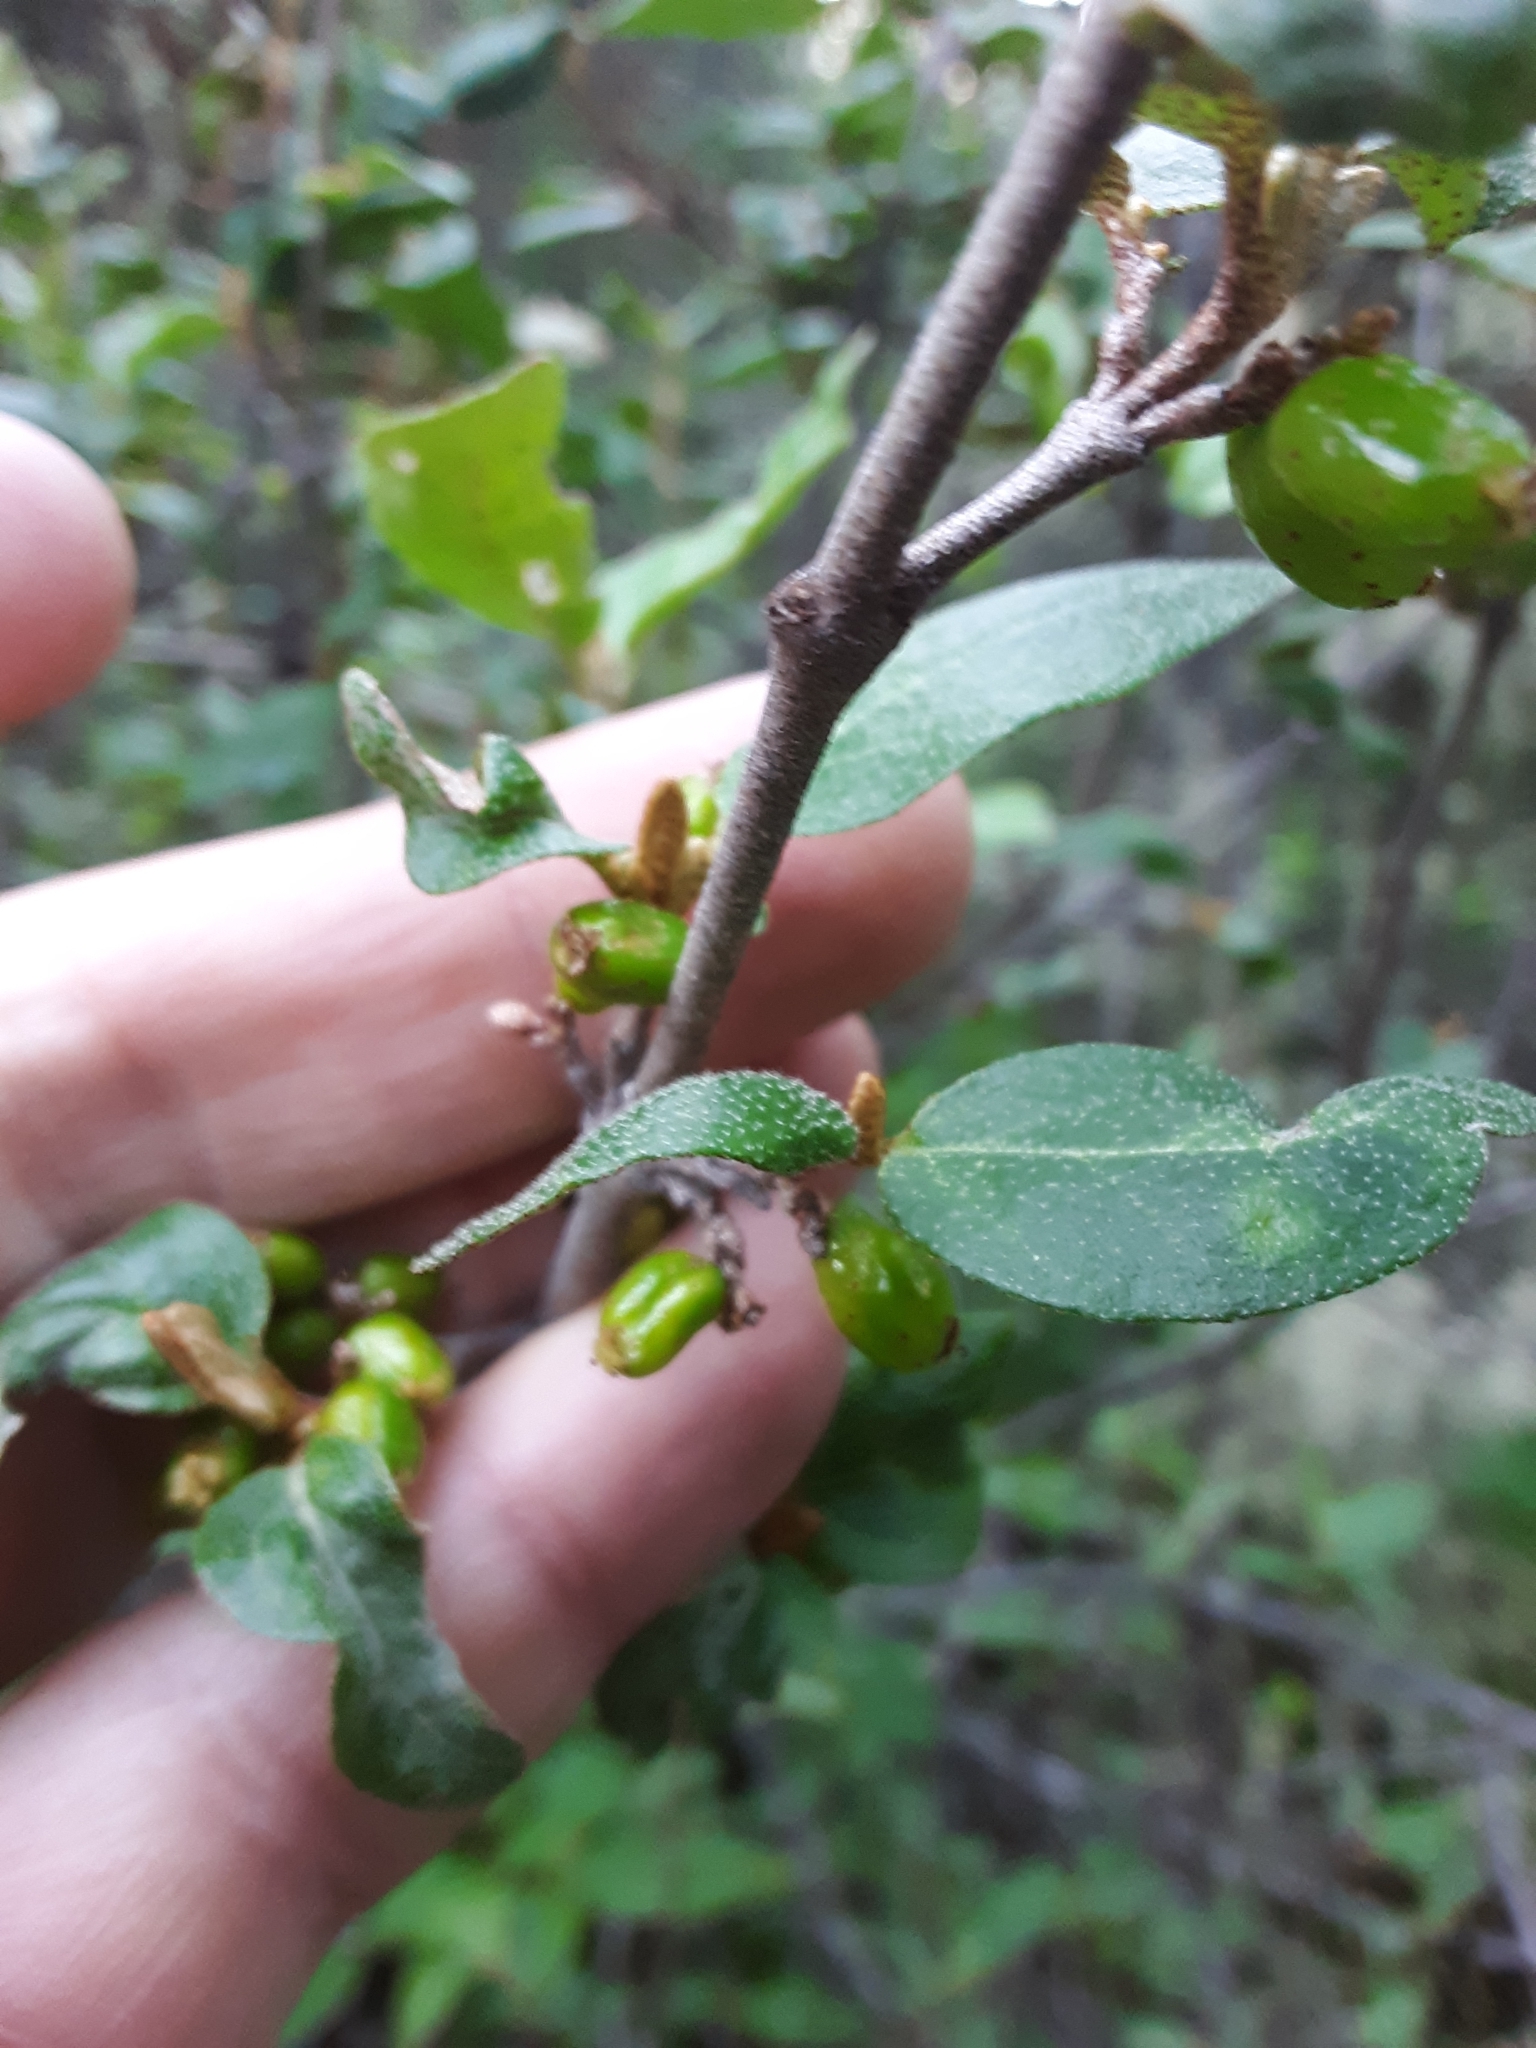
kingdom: Plantae
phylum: Tracheophyta
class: Magnoliopsida
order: Rosales
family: Elaeagnaceae
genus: Shepherdia
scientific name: Shepherdia canadensis
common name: Soapberry
